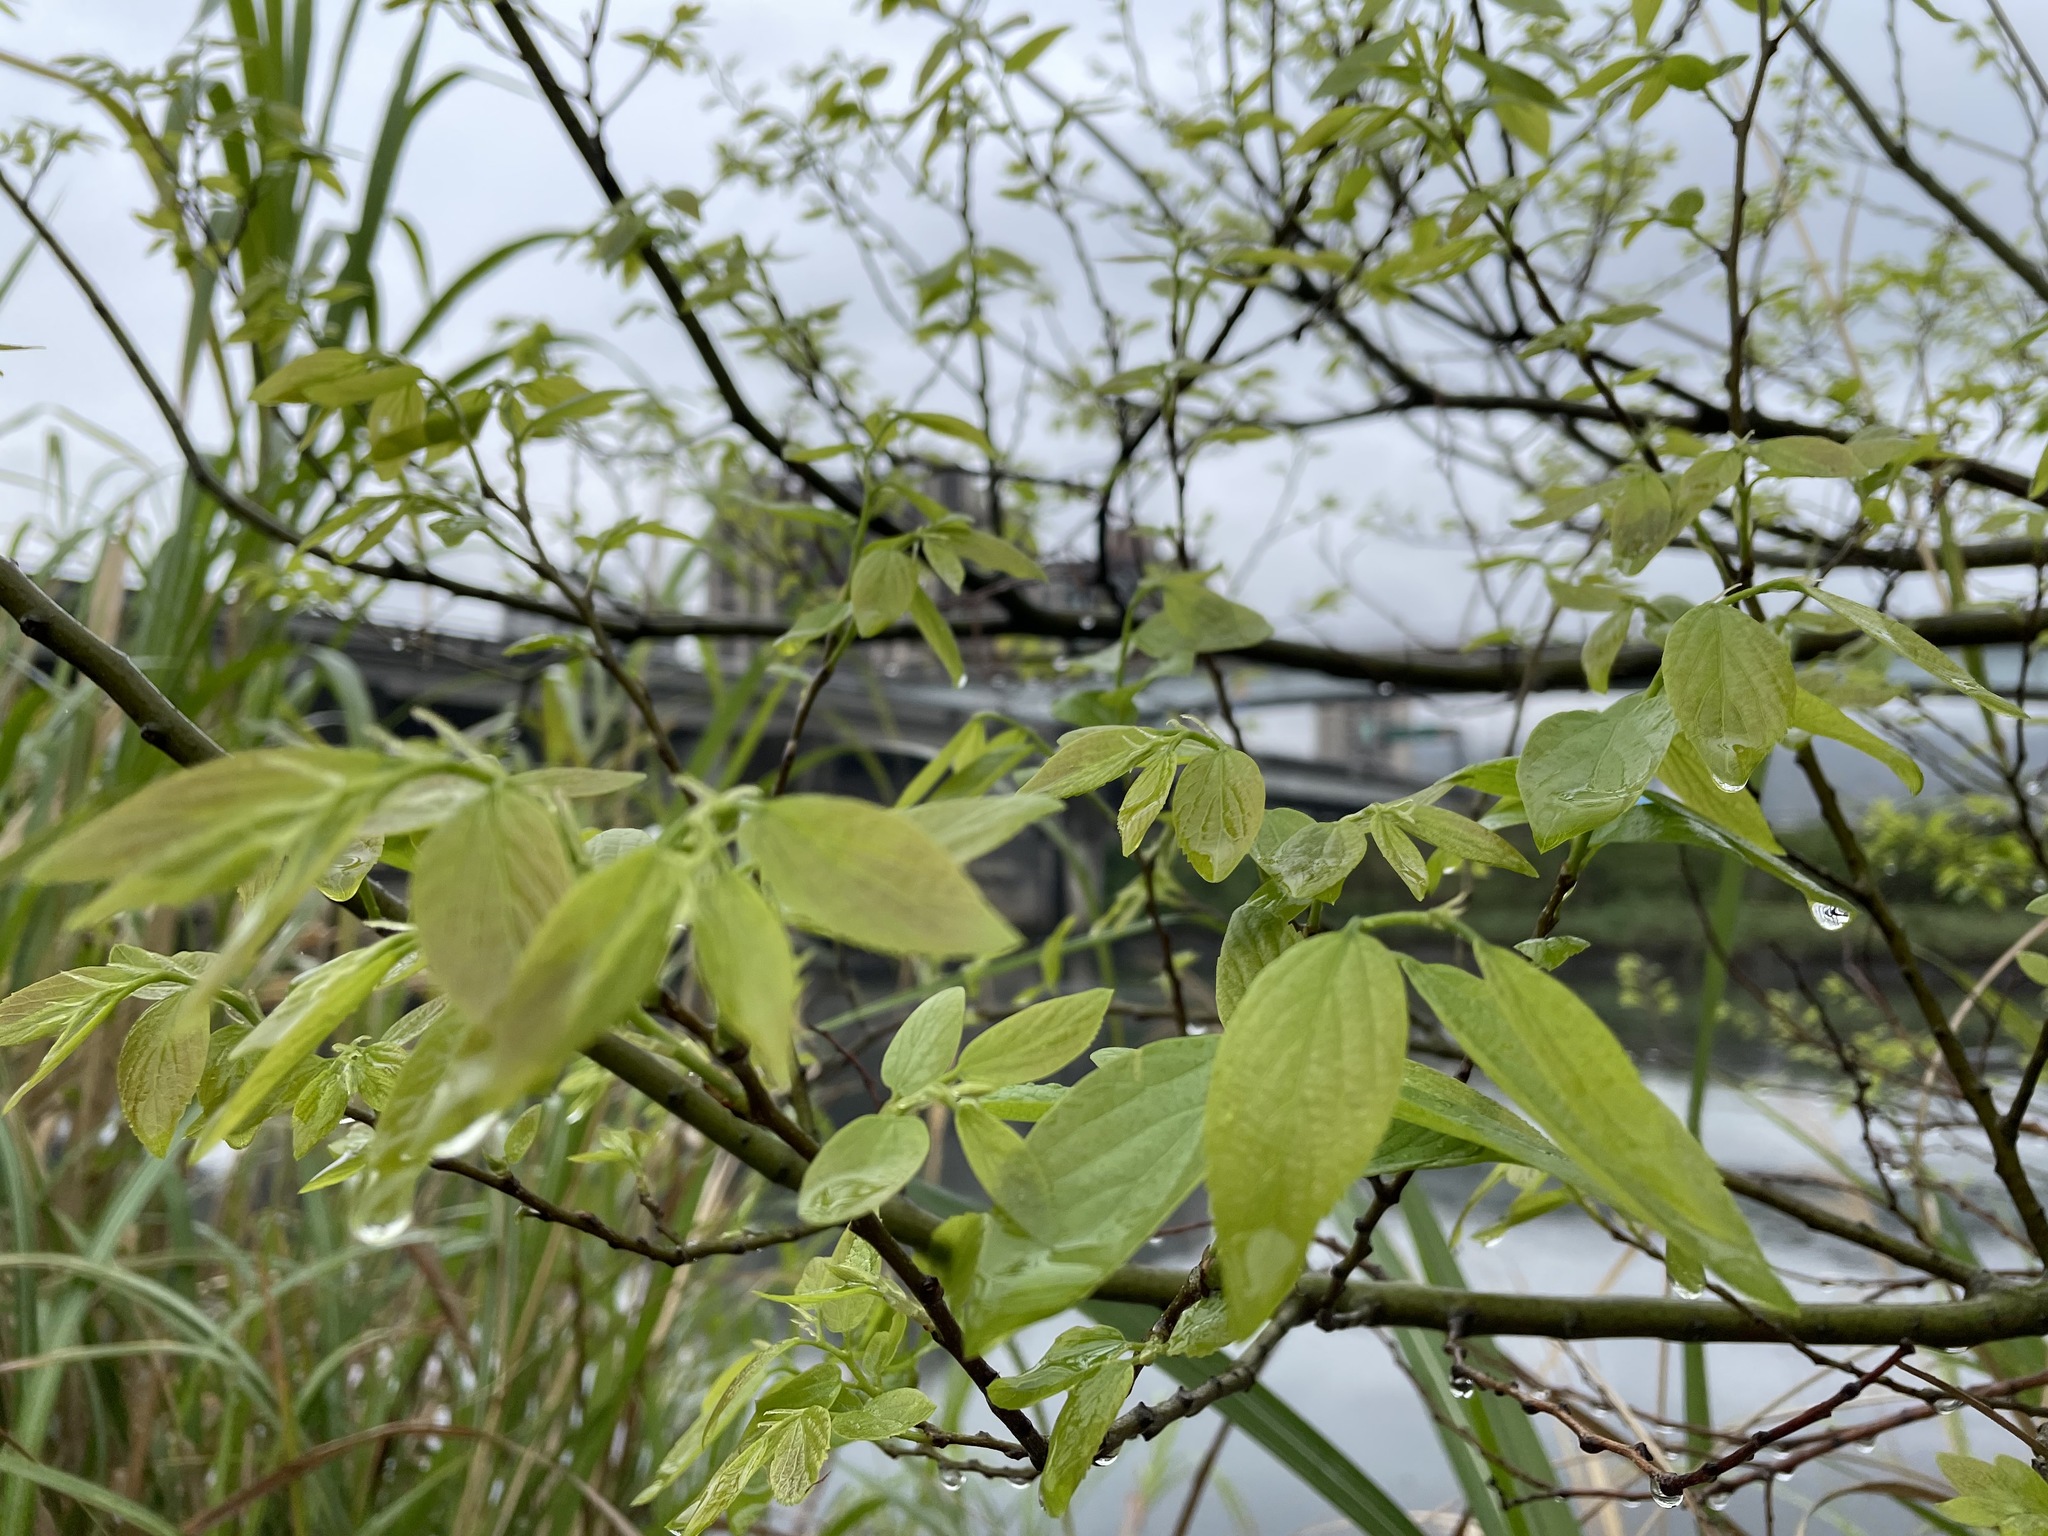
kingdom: Plantae
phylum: Tracheophyta
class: Magnoliopsida
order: Rosales
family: Cannabaceae
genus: Celtis
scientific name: Celtis sinensis
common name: Chinese hackberry
